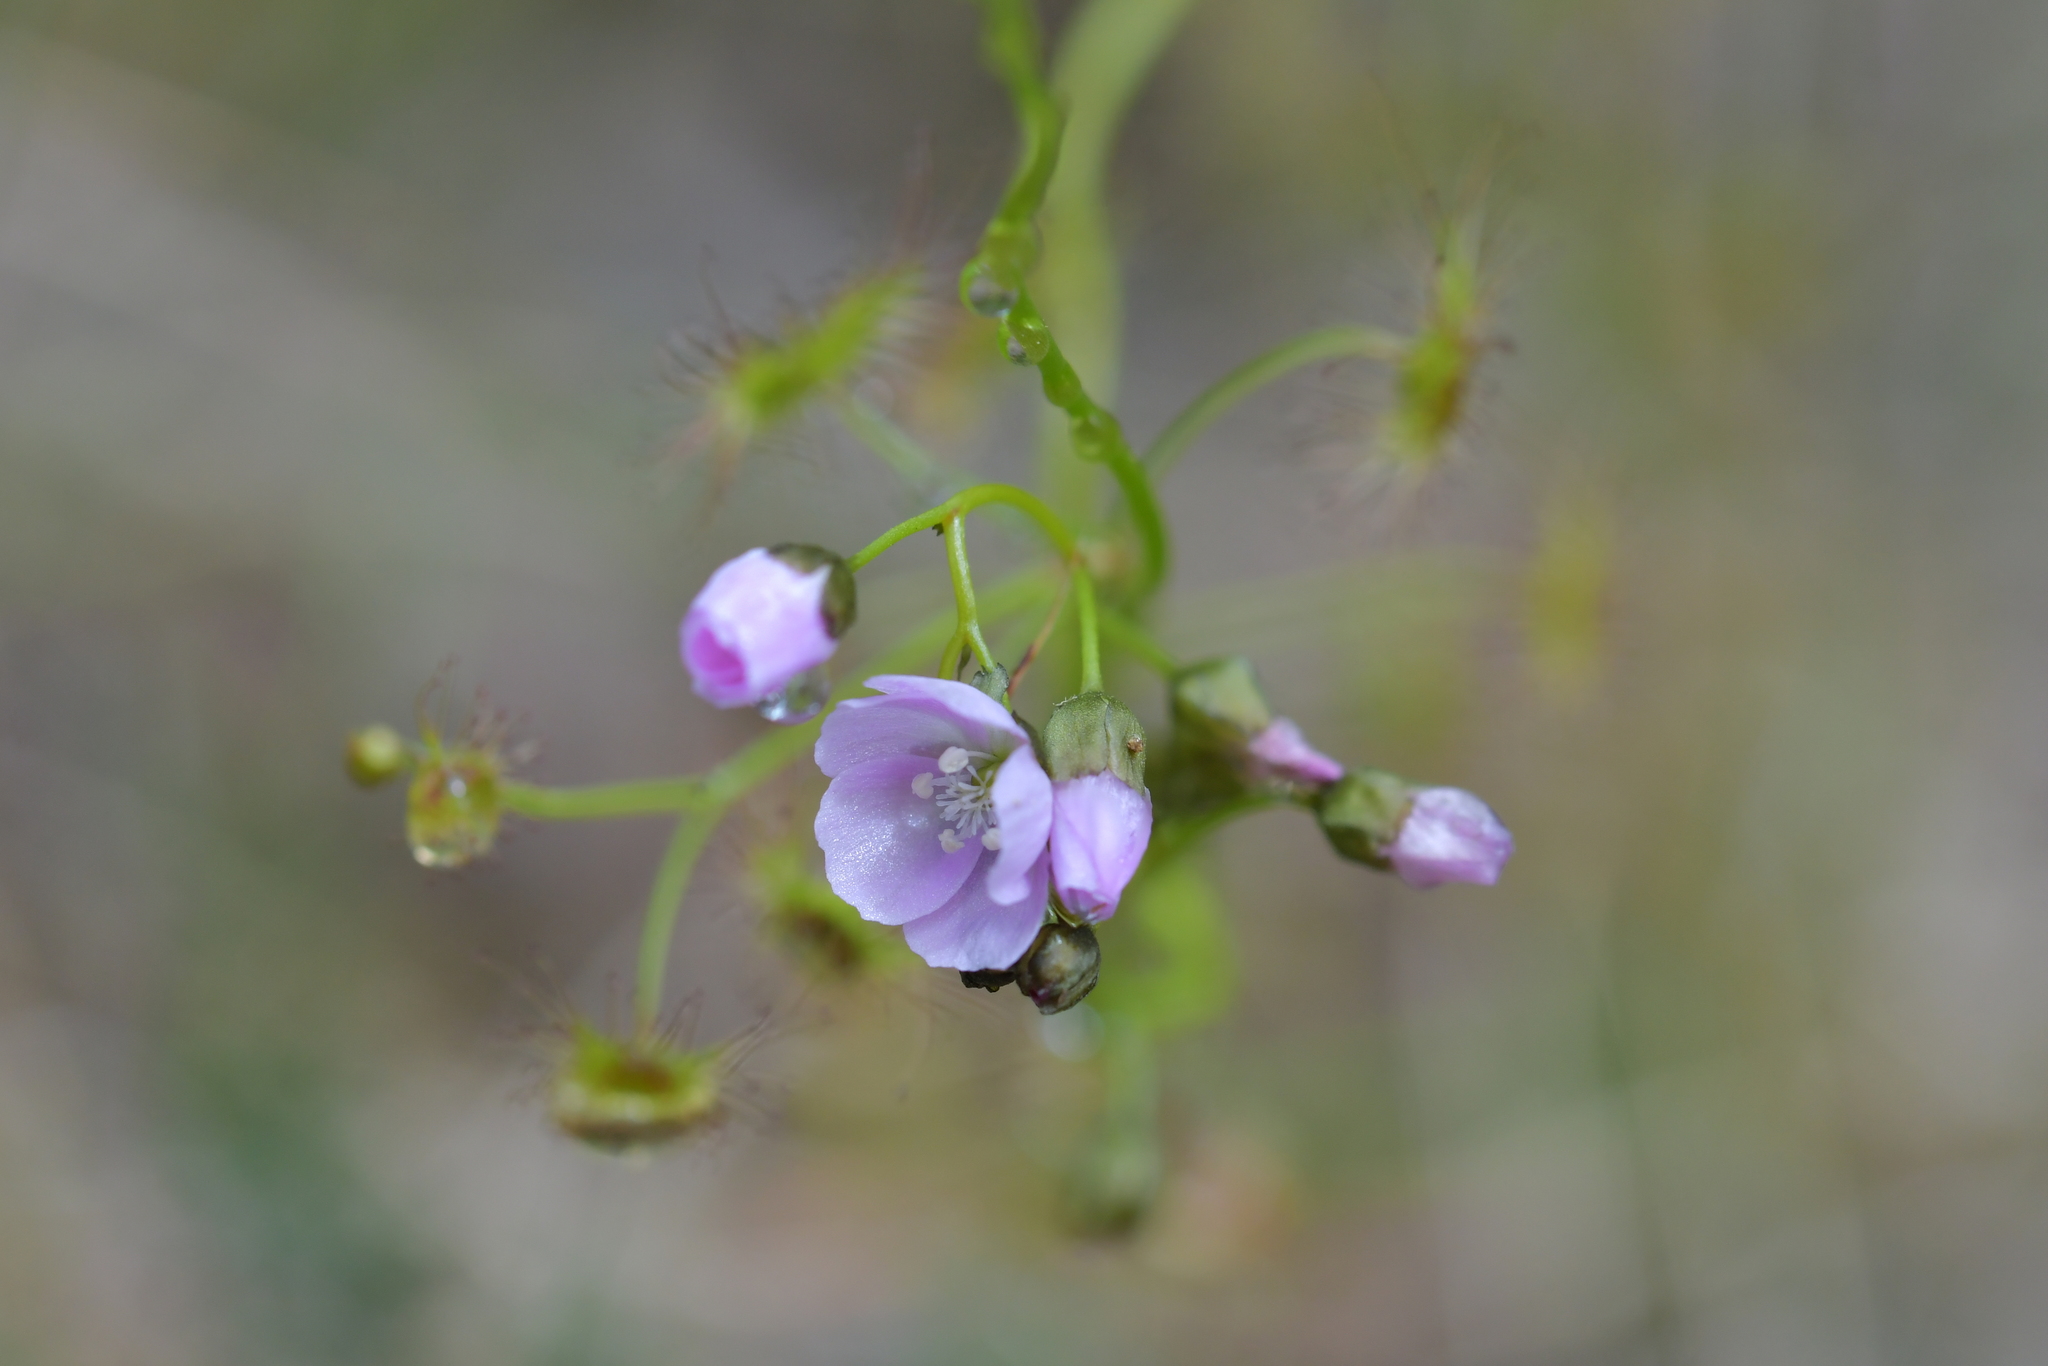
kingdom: Plantae
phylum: Tracheophyta
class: Magnoliopsida
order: Caryophyllales
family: Droseraceae
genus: Drosera
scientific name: Drosera peltata
